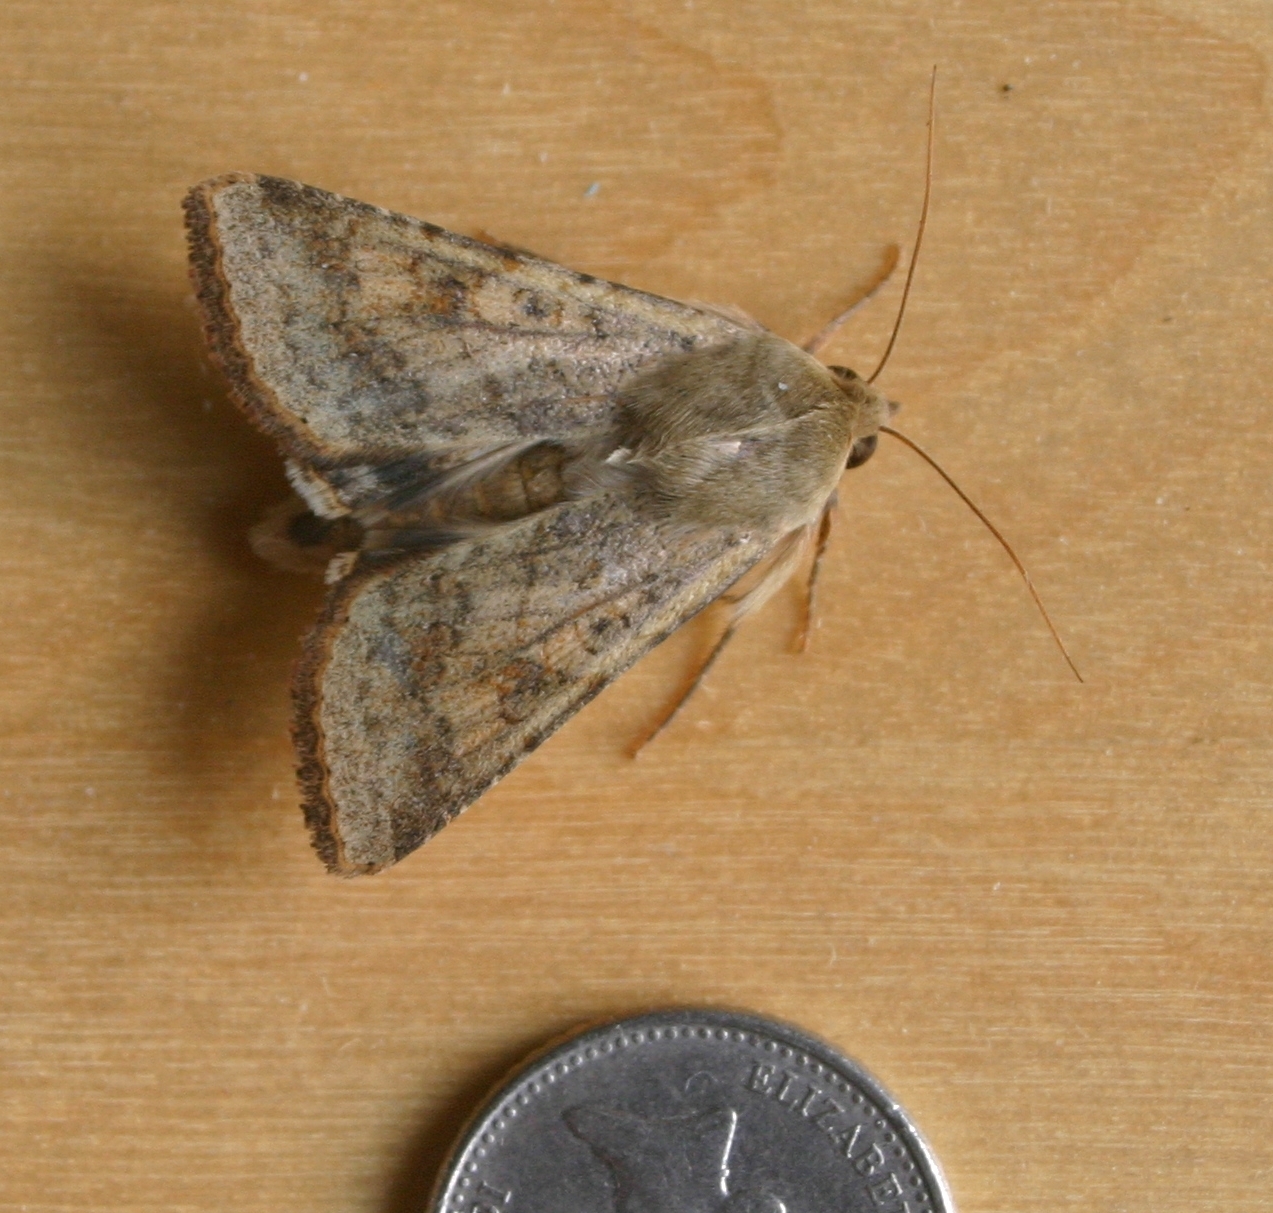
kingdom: Animalia
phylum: Arthropoda
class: Insecta
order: Lepidoptera
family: Noctuidae
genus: Helicoverpa
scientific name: Helicoverpa armigera
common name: Cotton bollworm
